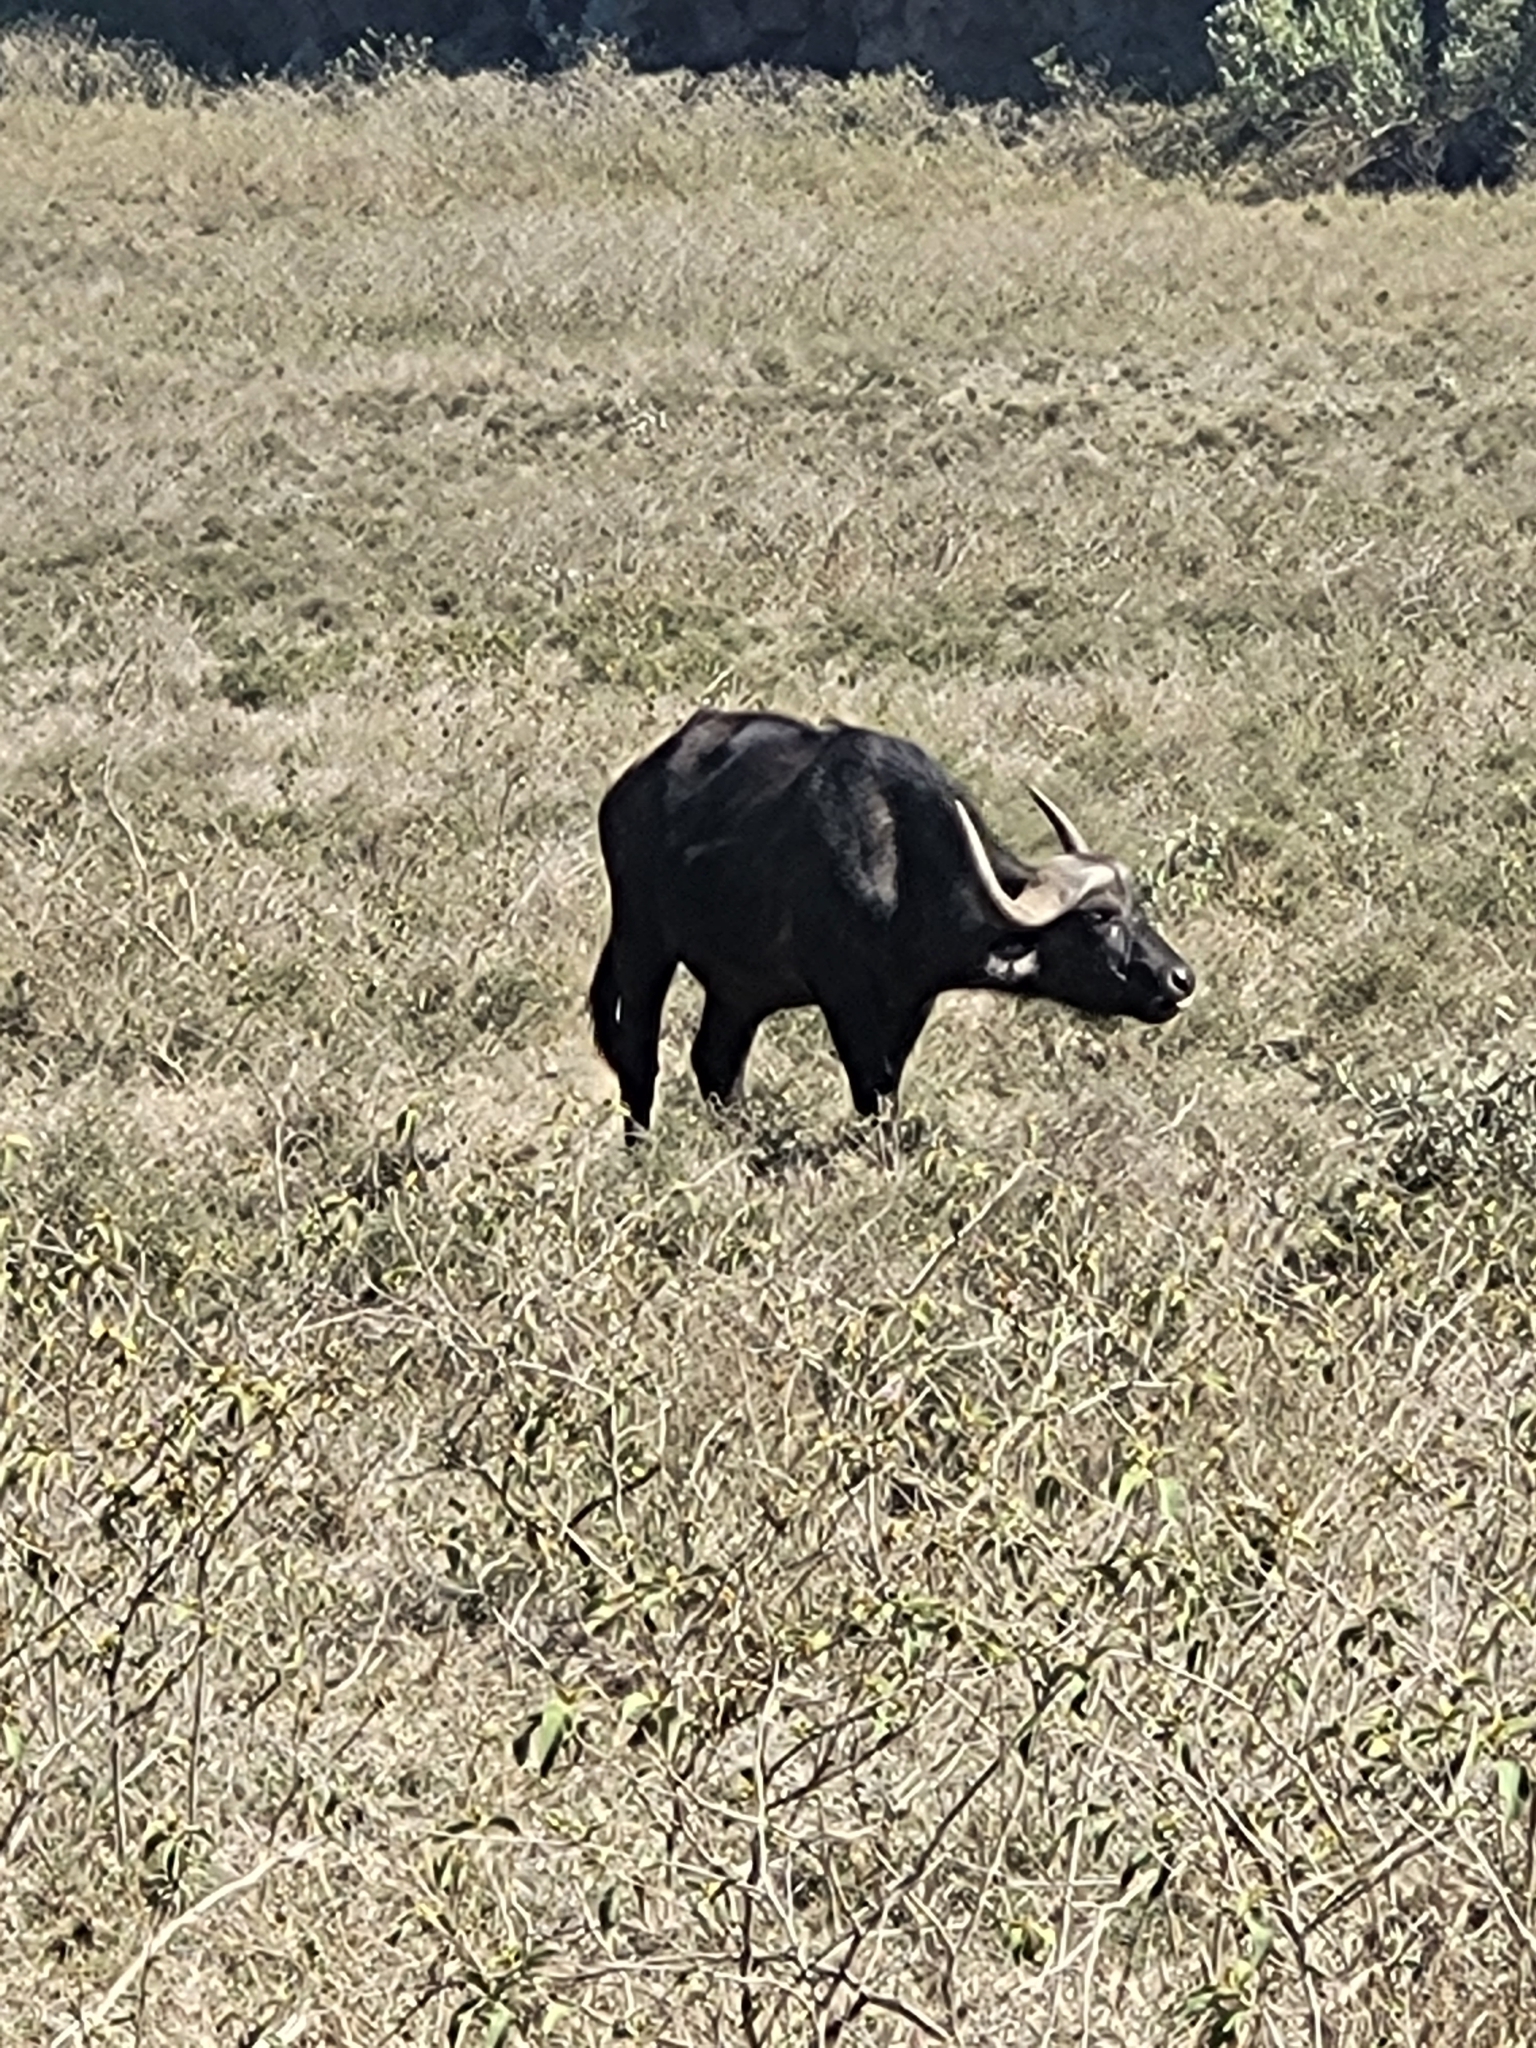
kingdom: Animalia
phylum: Chordata
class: Mammalia
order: Artiodactyla
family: Bovidae
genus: Syncerus
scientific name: Syncerus caffer
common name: African buffalo
